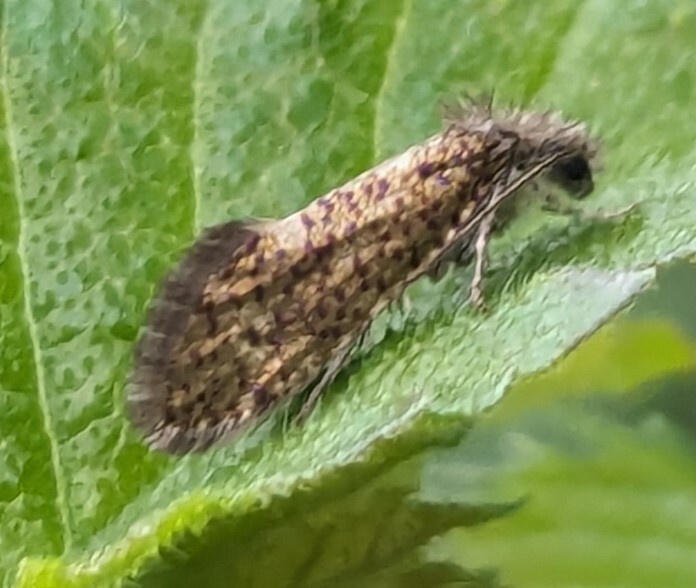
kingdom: Animalia
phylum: Arthropoda
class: Insecta
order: Lepidoptera
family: Eriocraniidae
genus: Dyseriocrania
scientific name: Dyseriocrania subpurpurella
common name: Common oak purple
